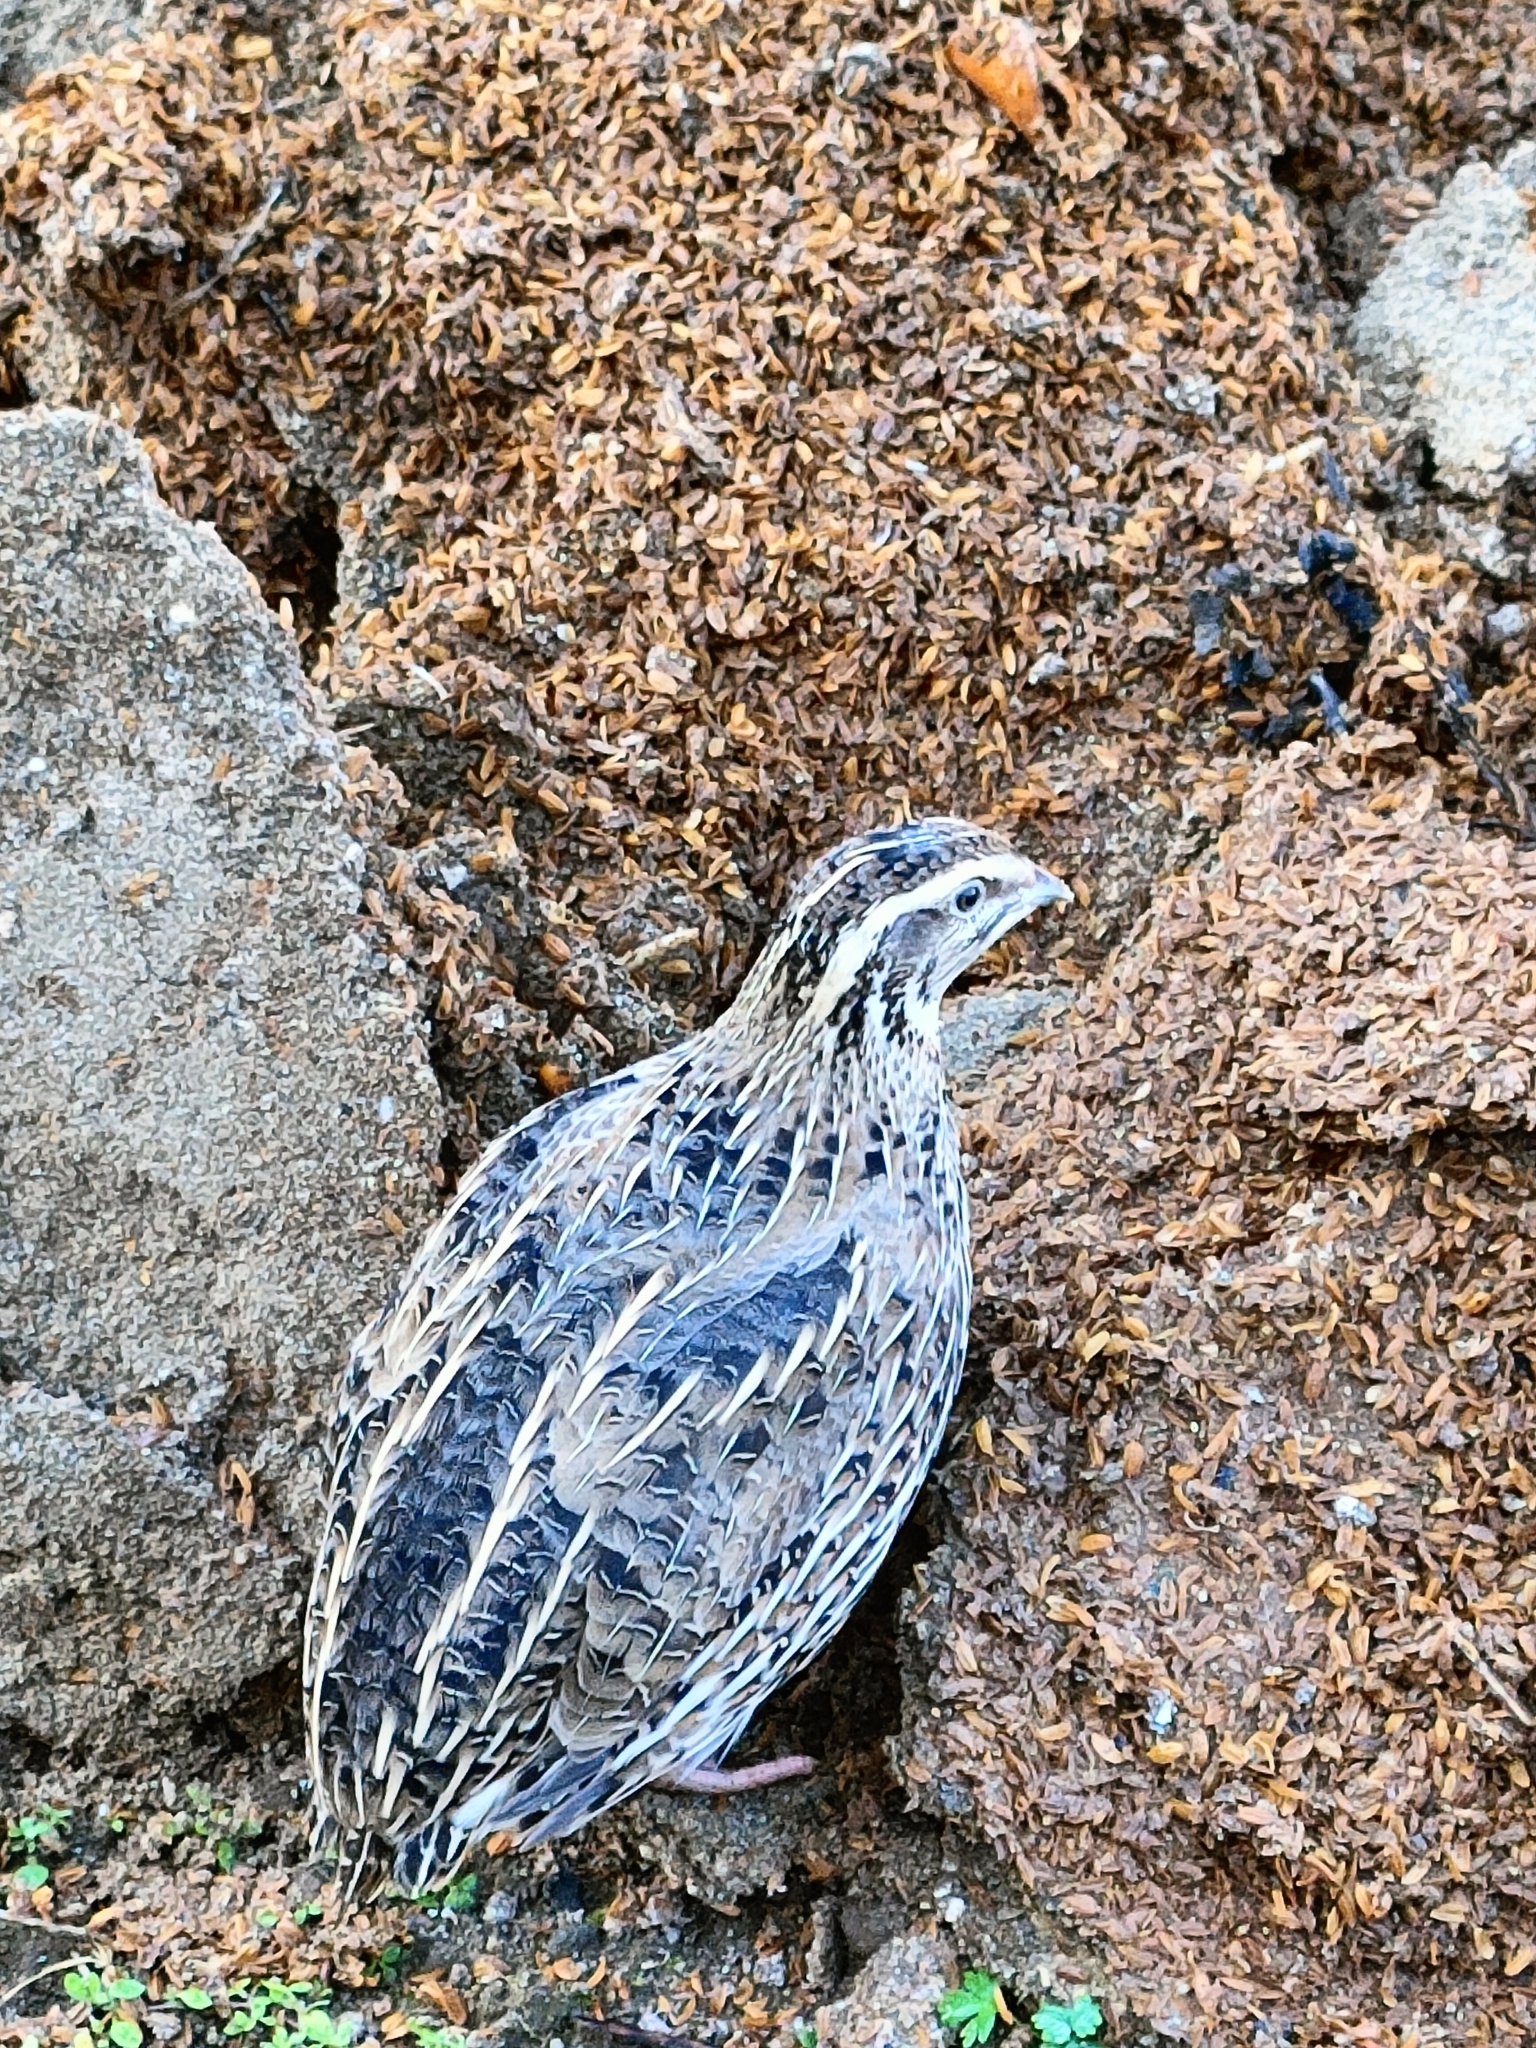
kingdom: Animalia
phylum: Chordata
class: Aves
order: Galliformes
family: Phasianidae
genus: Coturnix
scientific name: Coturnix coturnix
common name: Common quail
